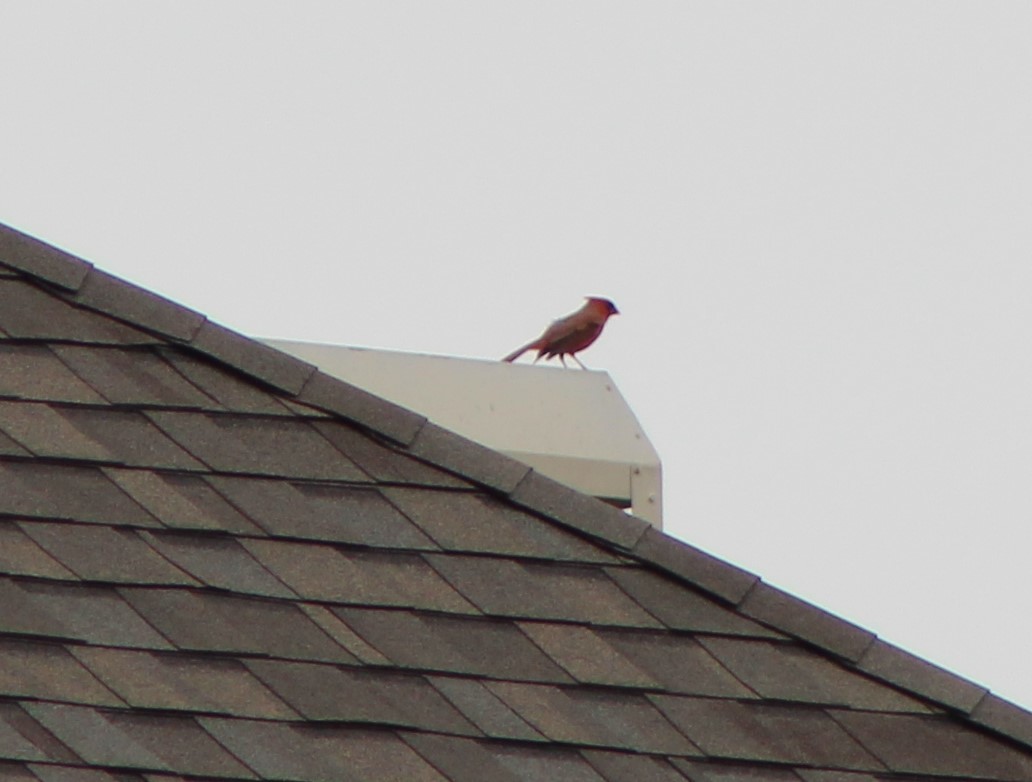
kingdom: Animalia
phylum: Chordata
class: Aves
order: Passeriformes
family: Cardinalidae
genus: Cardinalis
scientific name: Cardinalis cardinalis
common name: Northern cardinal
